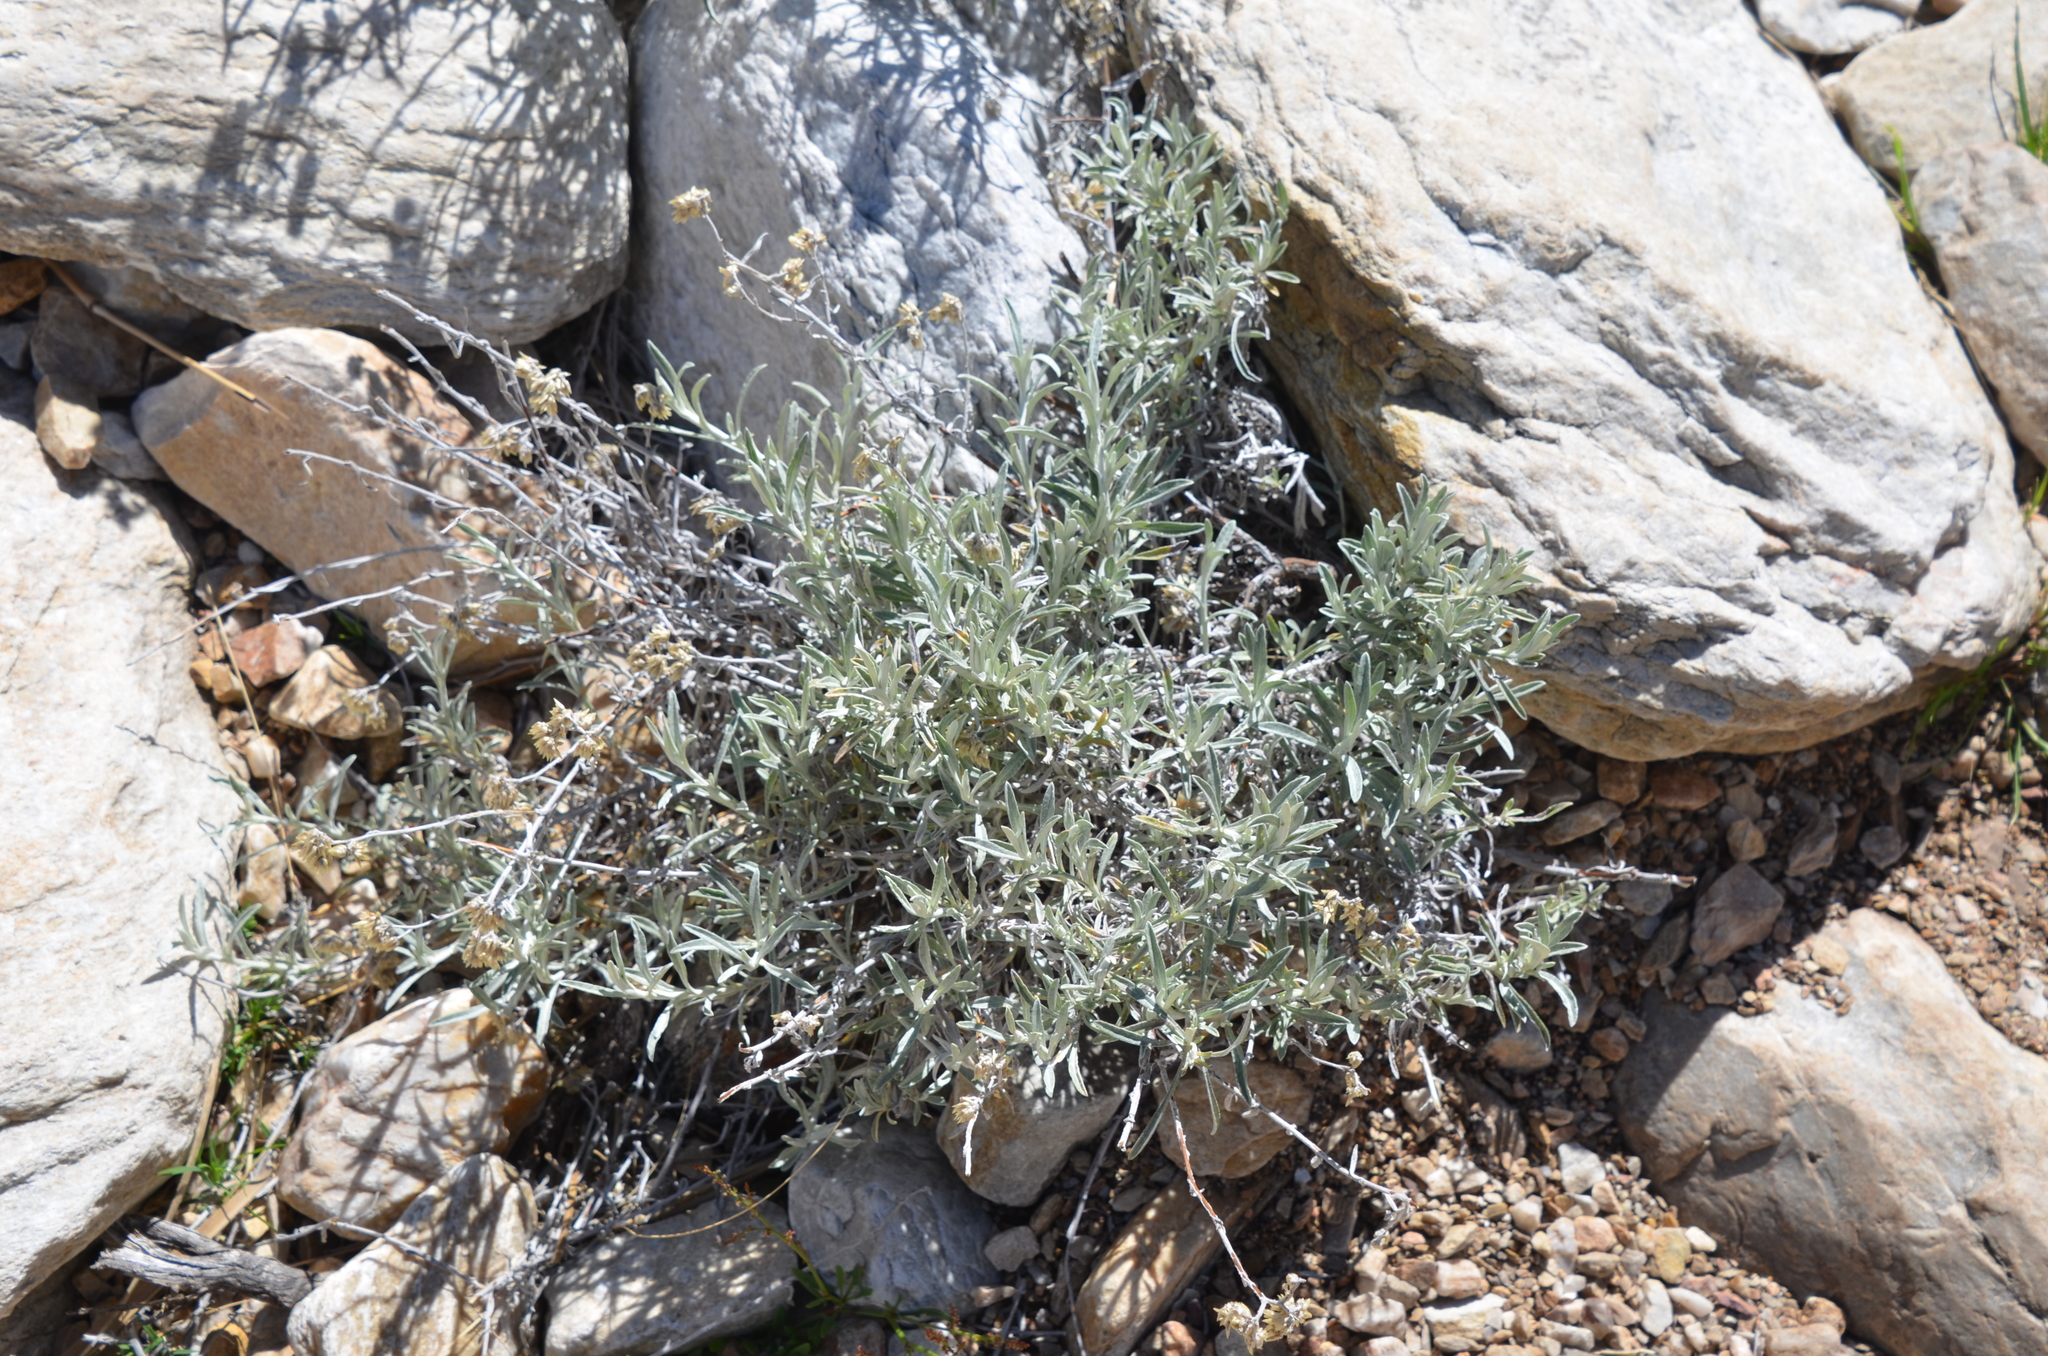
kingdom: Plantae
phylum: Tracheophyta
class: Magnoliopsida
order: Asterales
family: Asteraceae
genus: Achyrocline
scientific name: Achyrocline satureioides
